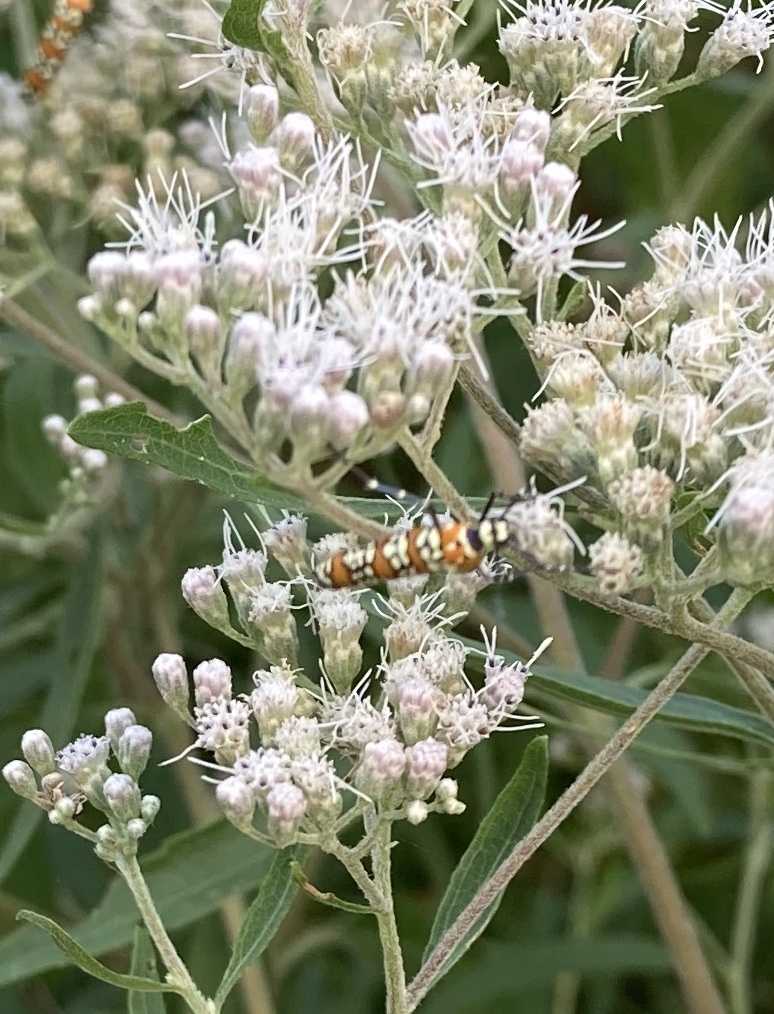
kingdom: Animalia
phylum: Arthropoda
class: Insecta
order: Lepidoptera
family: Attevidae
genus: Atteva
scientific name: Atteva punctella
